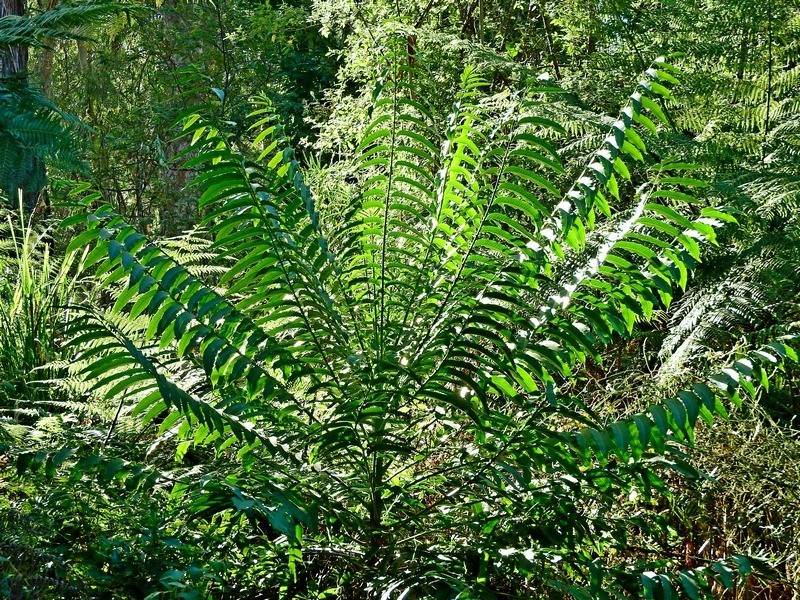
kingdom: Plantae
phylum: Tracheophyta
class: Magnoliopsida
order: Apiales
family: Araliaceae
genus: Polyscias
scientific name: Polyscias murrayi
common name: Pencil cedar
